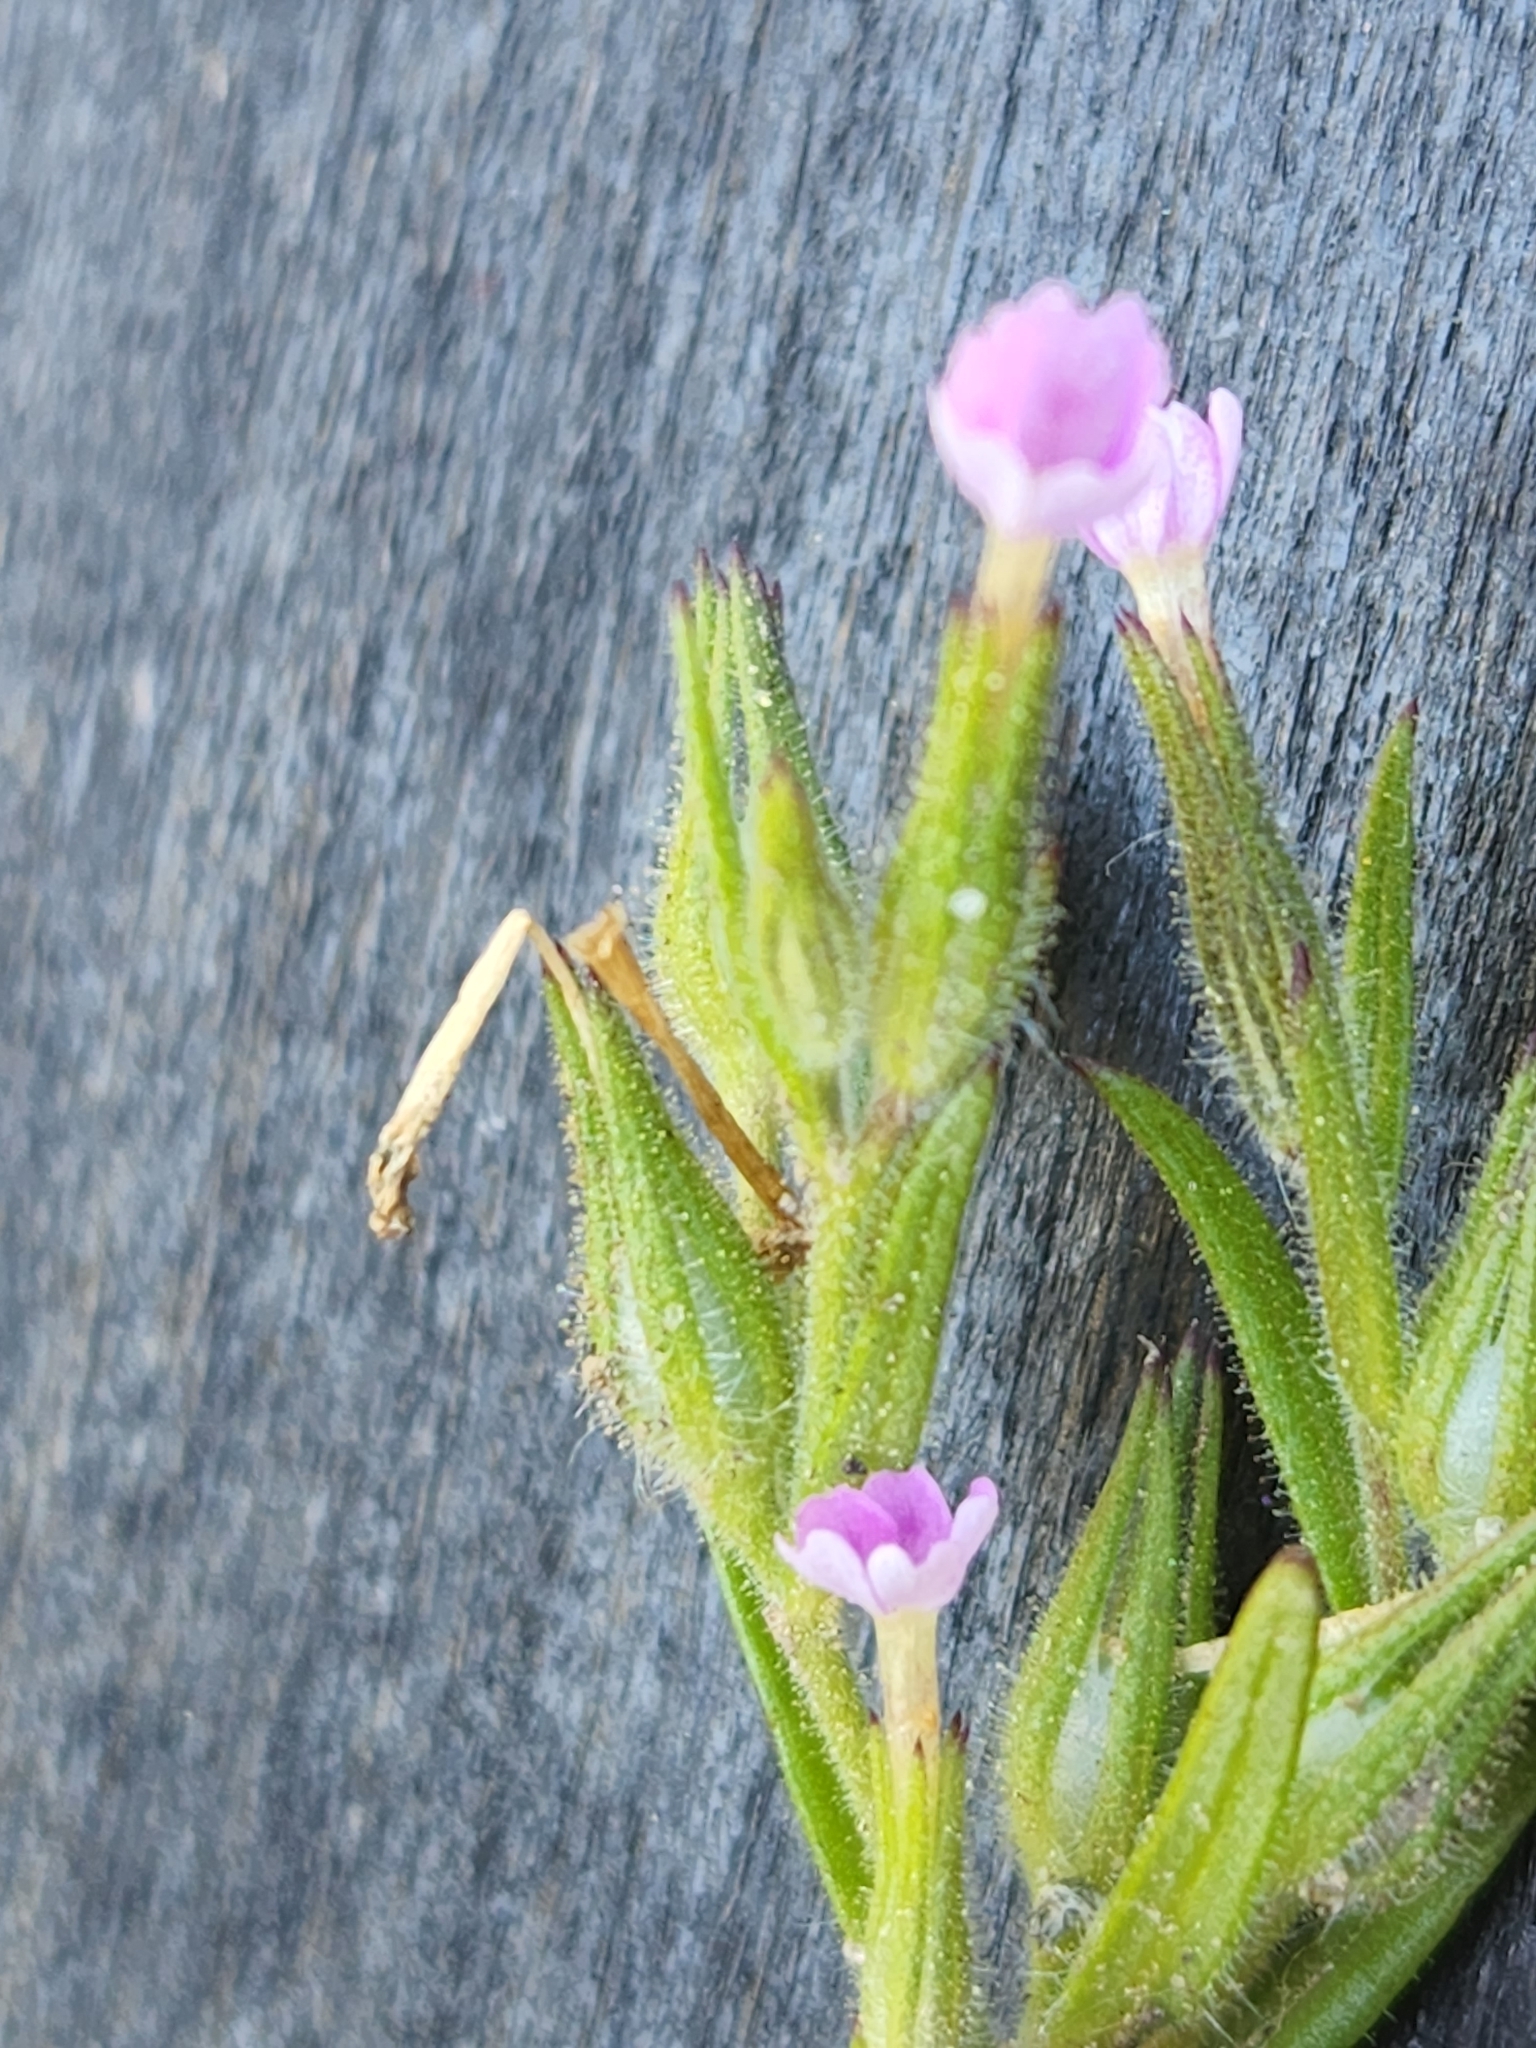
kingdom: Plantae
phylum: Tracheophyta
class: Magnoliopsida
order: Ericales
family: Polemoniaceae
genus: Phlox
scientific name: Phlox gracilis
